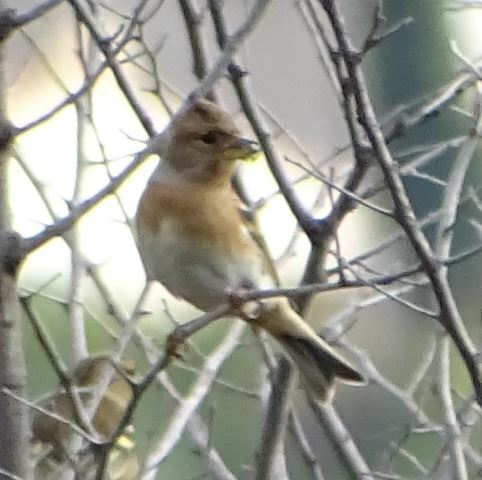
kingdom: Animalia
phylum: Chordata
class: Aves
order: Passeriformes
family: Fringillidae
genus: Fringilla
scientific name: Fringilla montifringilla
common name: Brambling
